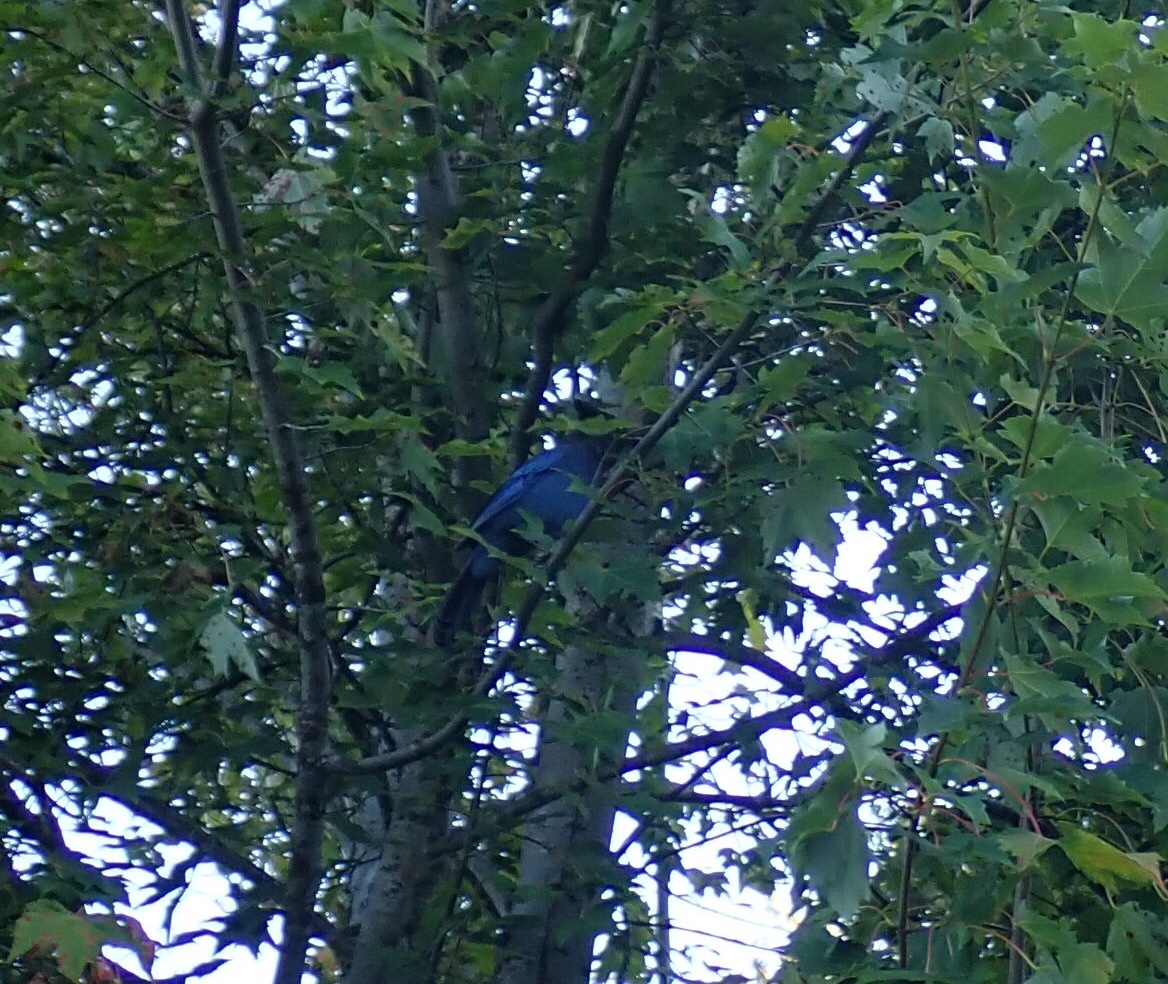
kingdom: Animalia
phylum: Chordata
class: Aves
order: Passeriformes
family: Corvidae
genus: Cyanocitta
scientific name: Cyanocitta stelleri
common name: Steller's jay
